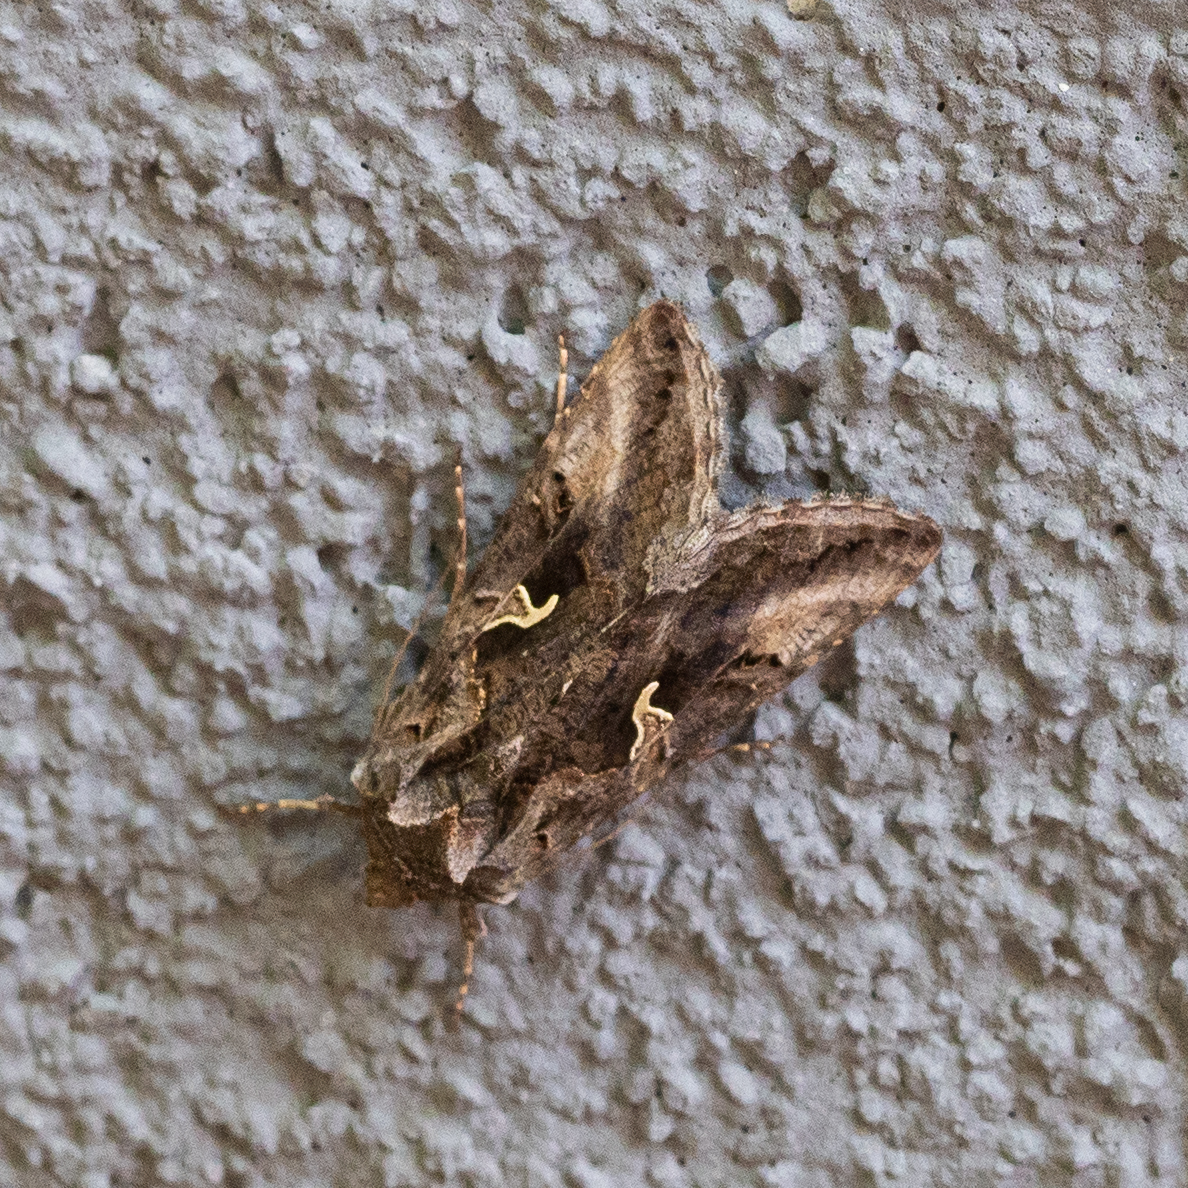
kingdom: Animalia
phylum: Arthropoda
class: Insecta
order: Lepidoptera
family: Noctuidae
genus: Autographa
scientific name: Autographa gamma
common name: Silver y
